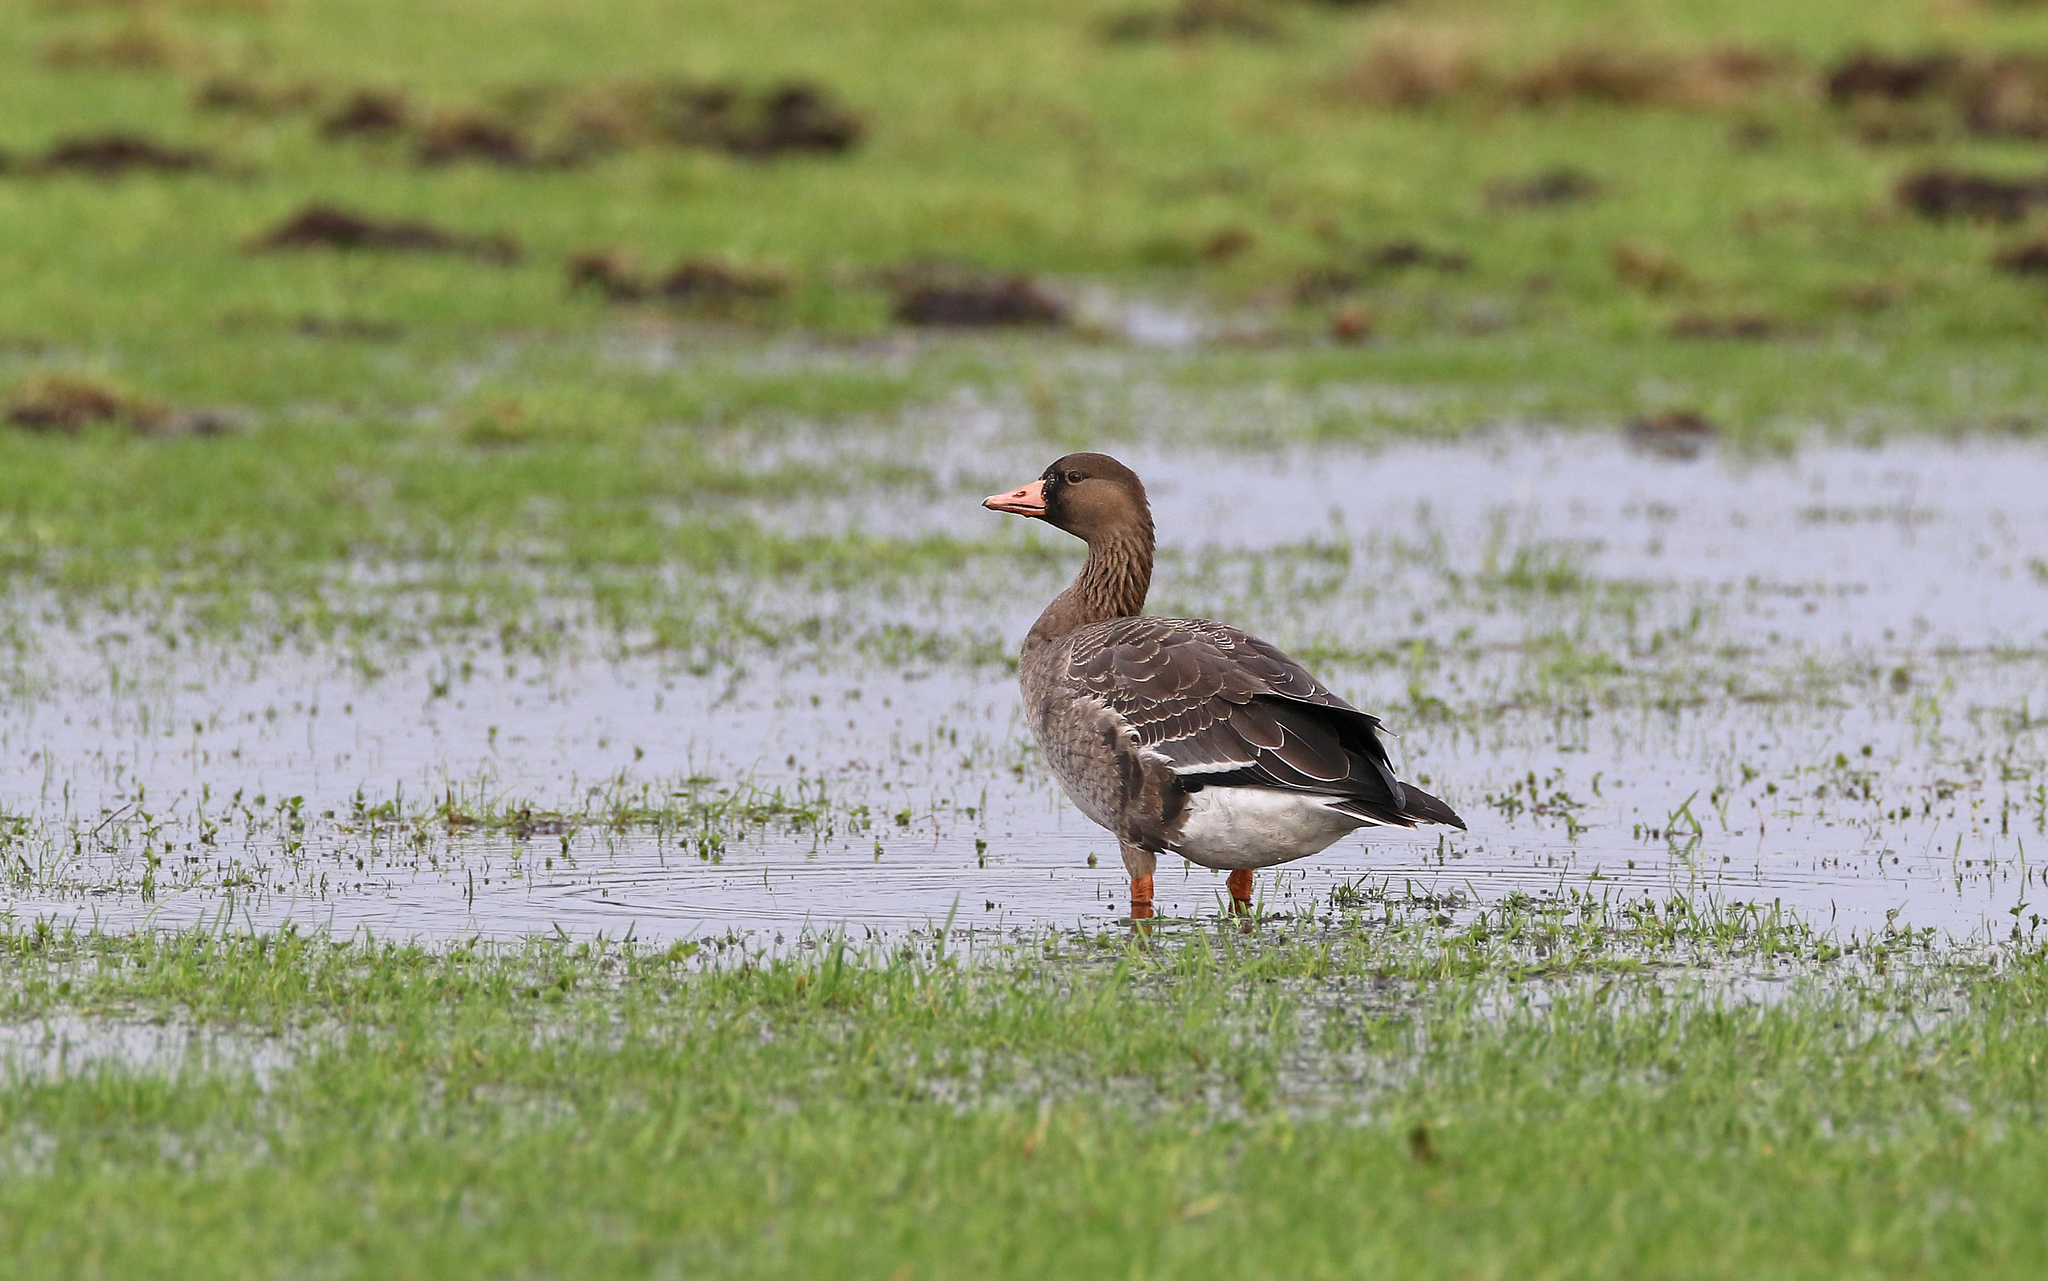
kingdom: Animalia
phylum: Chordata
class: Aves
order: Anseriformes
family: Anatidae
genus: Anser
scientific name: Anser albifrons
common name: Greater white-fronted goose
